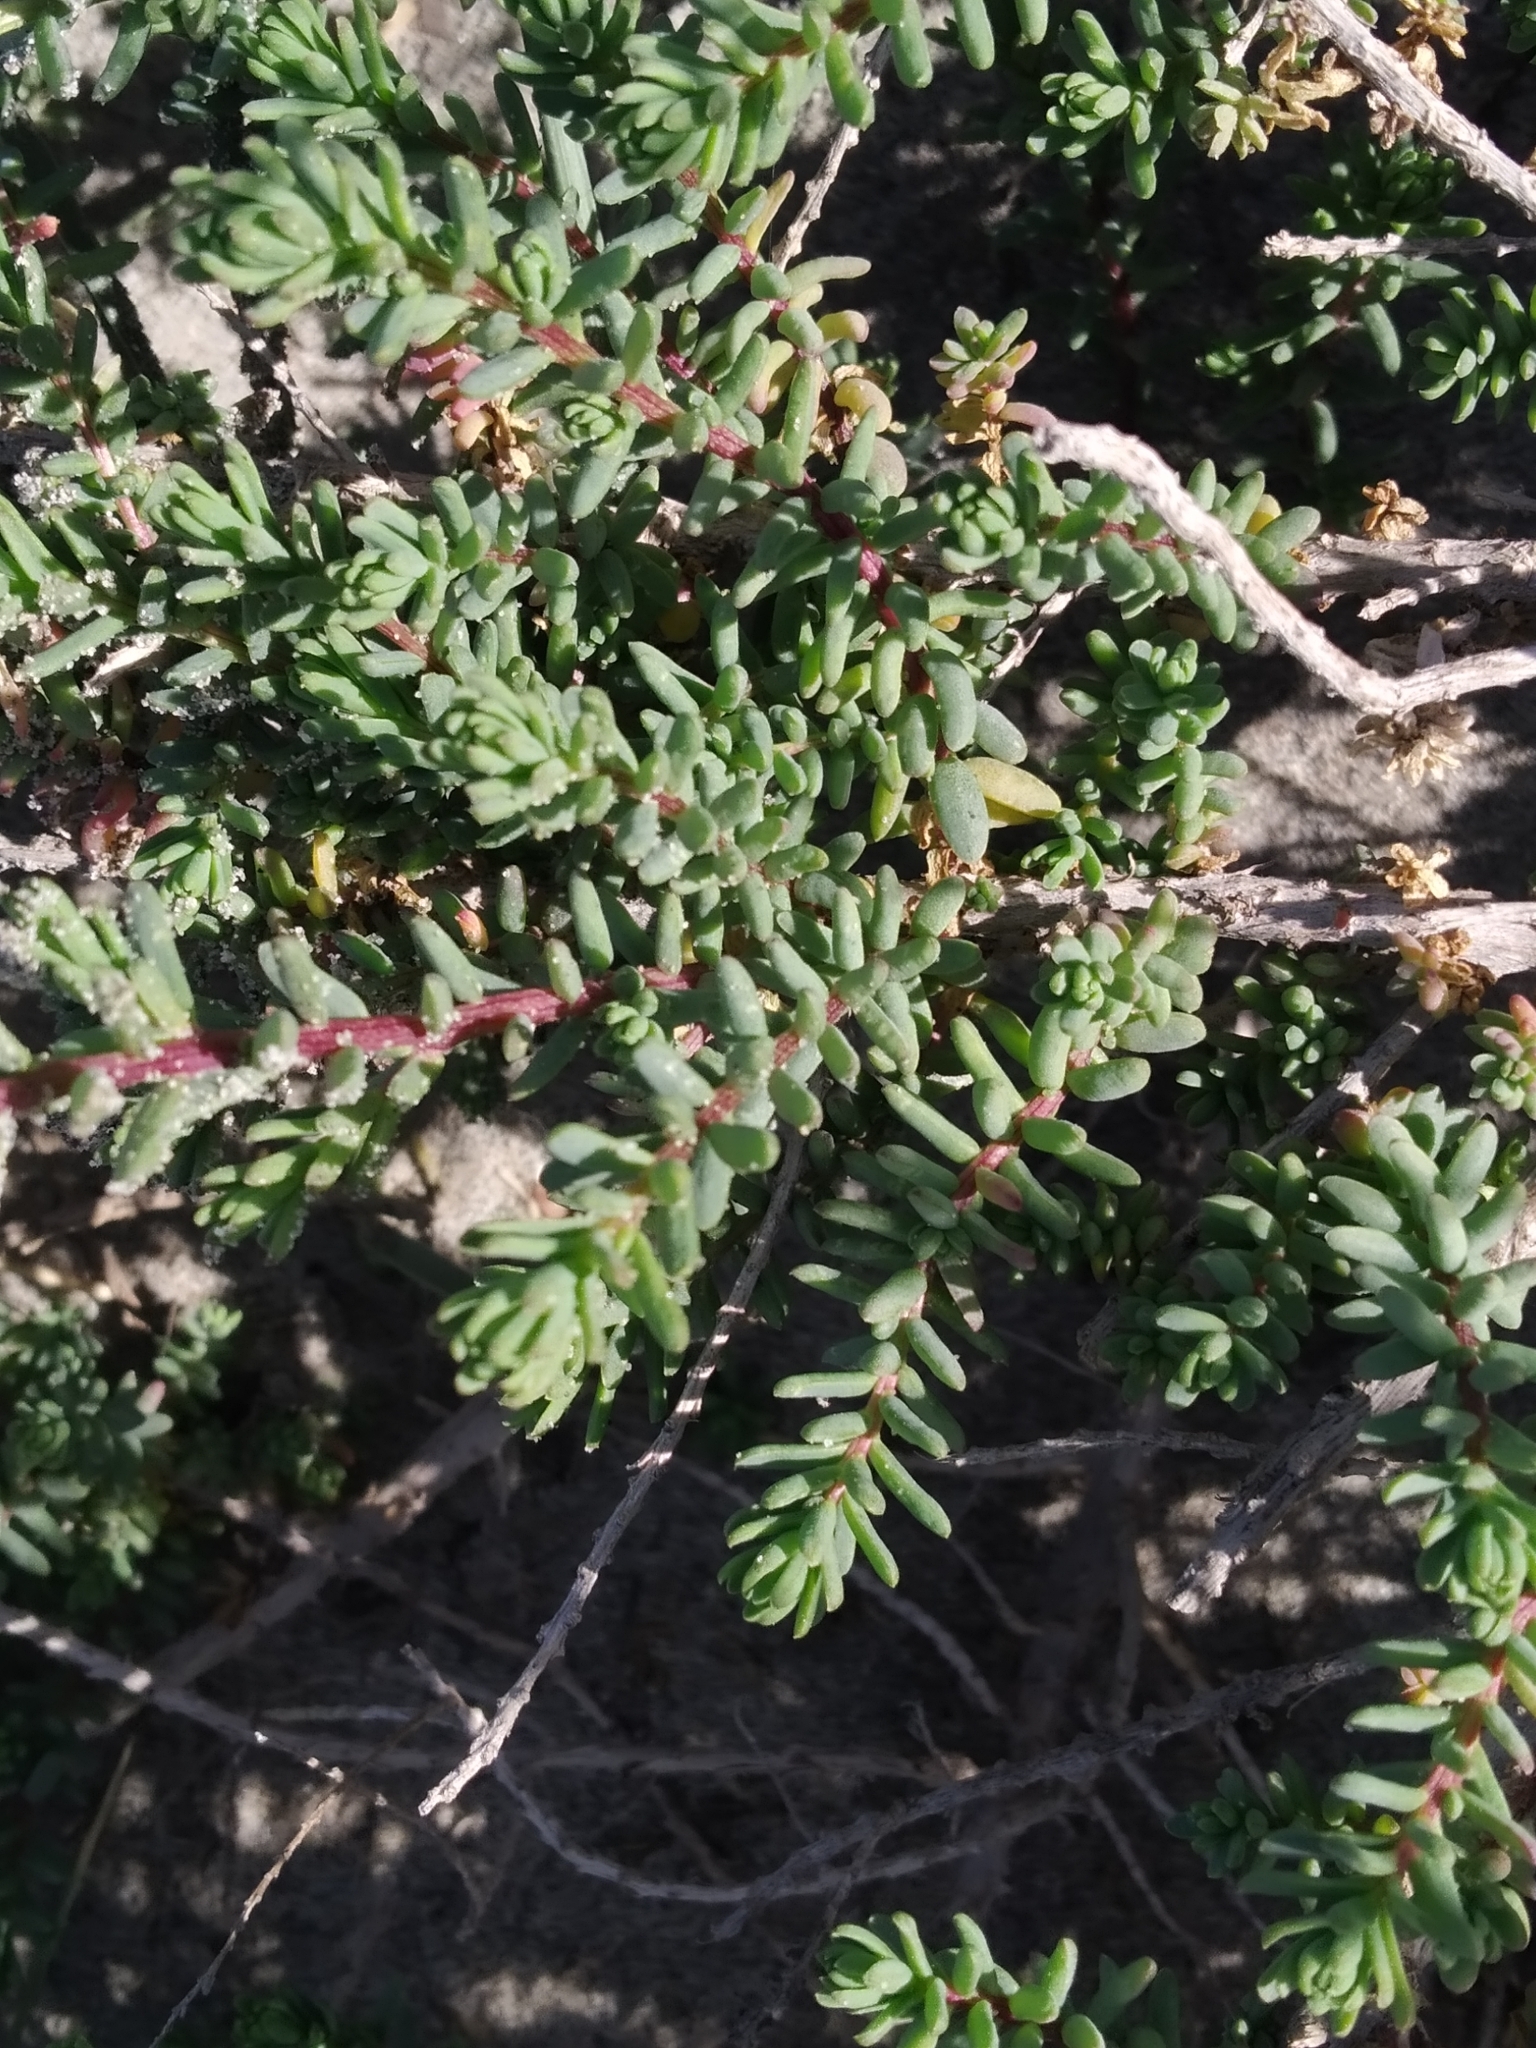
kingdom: Plantae
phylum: Tracheophyta
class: Magnoliopsida
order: Caryophyllales
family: Amaranthaceae
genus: Suaeda
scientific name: Suaeda vera
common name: Shrubby sea-blite
